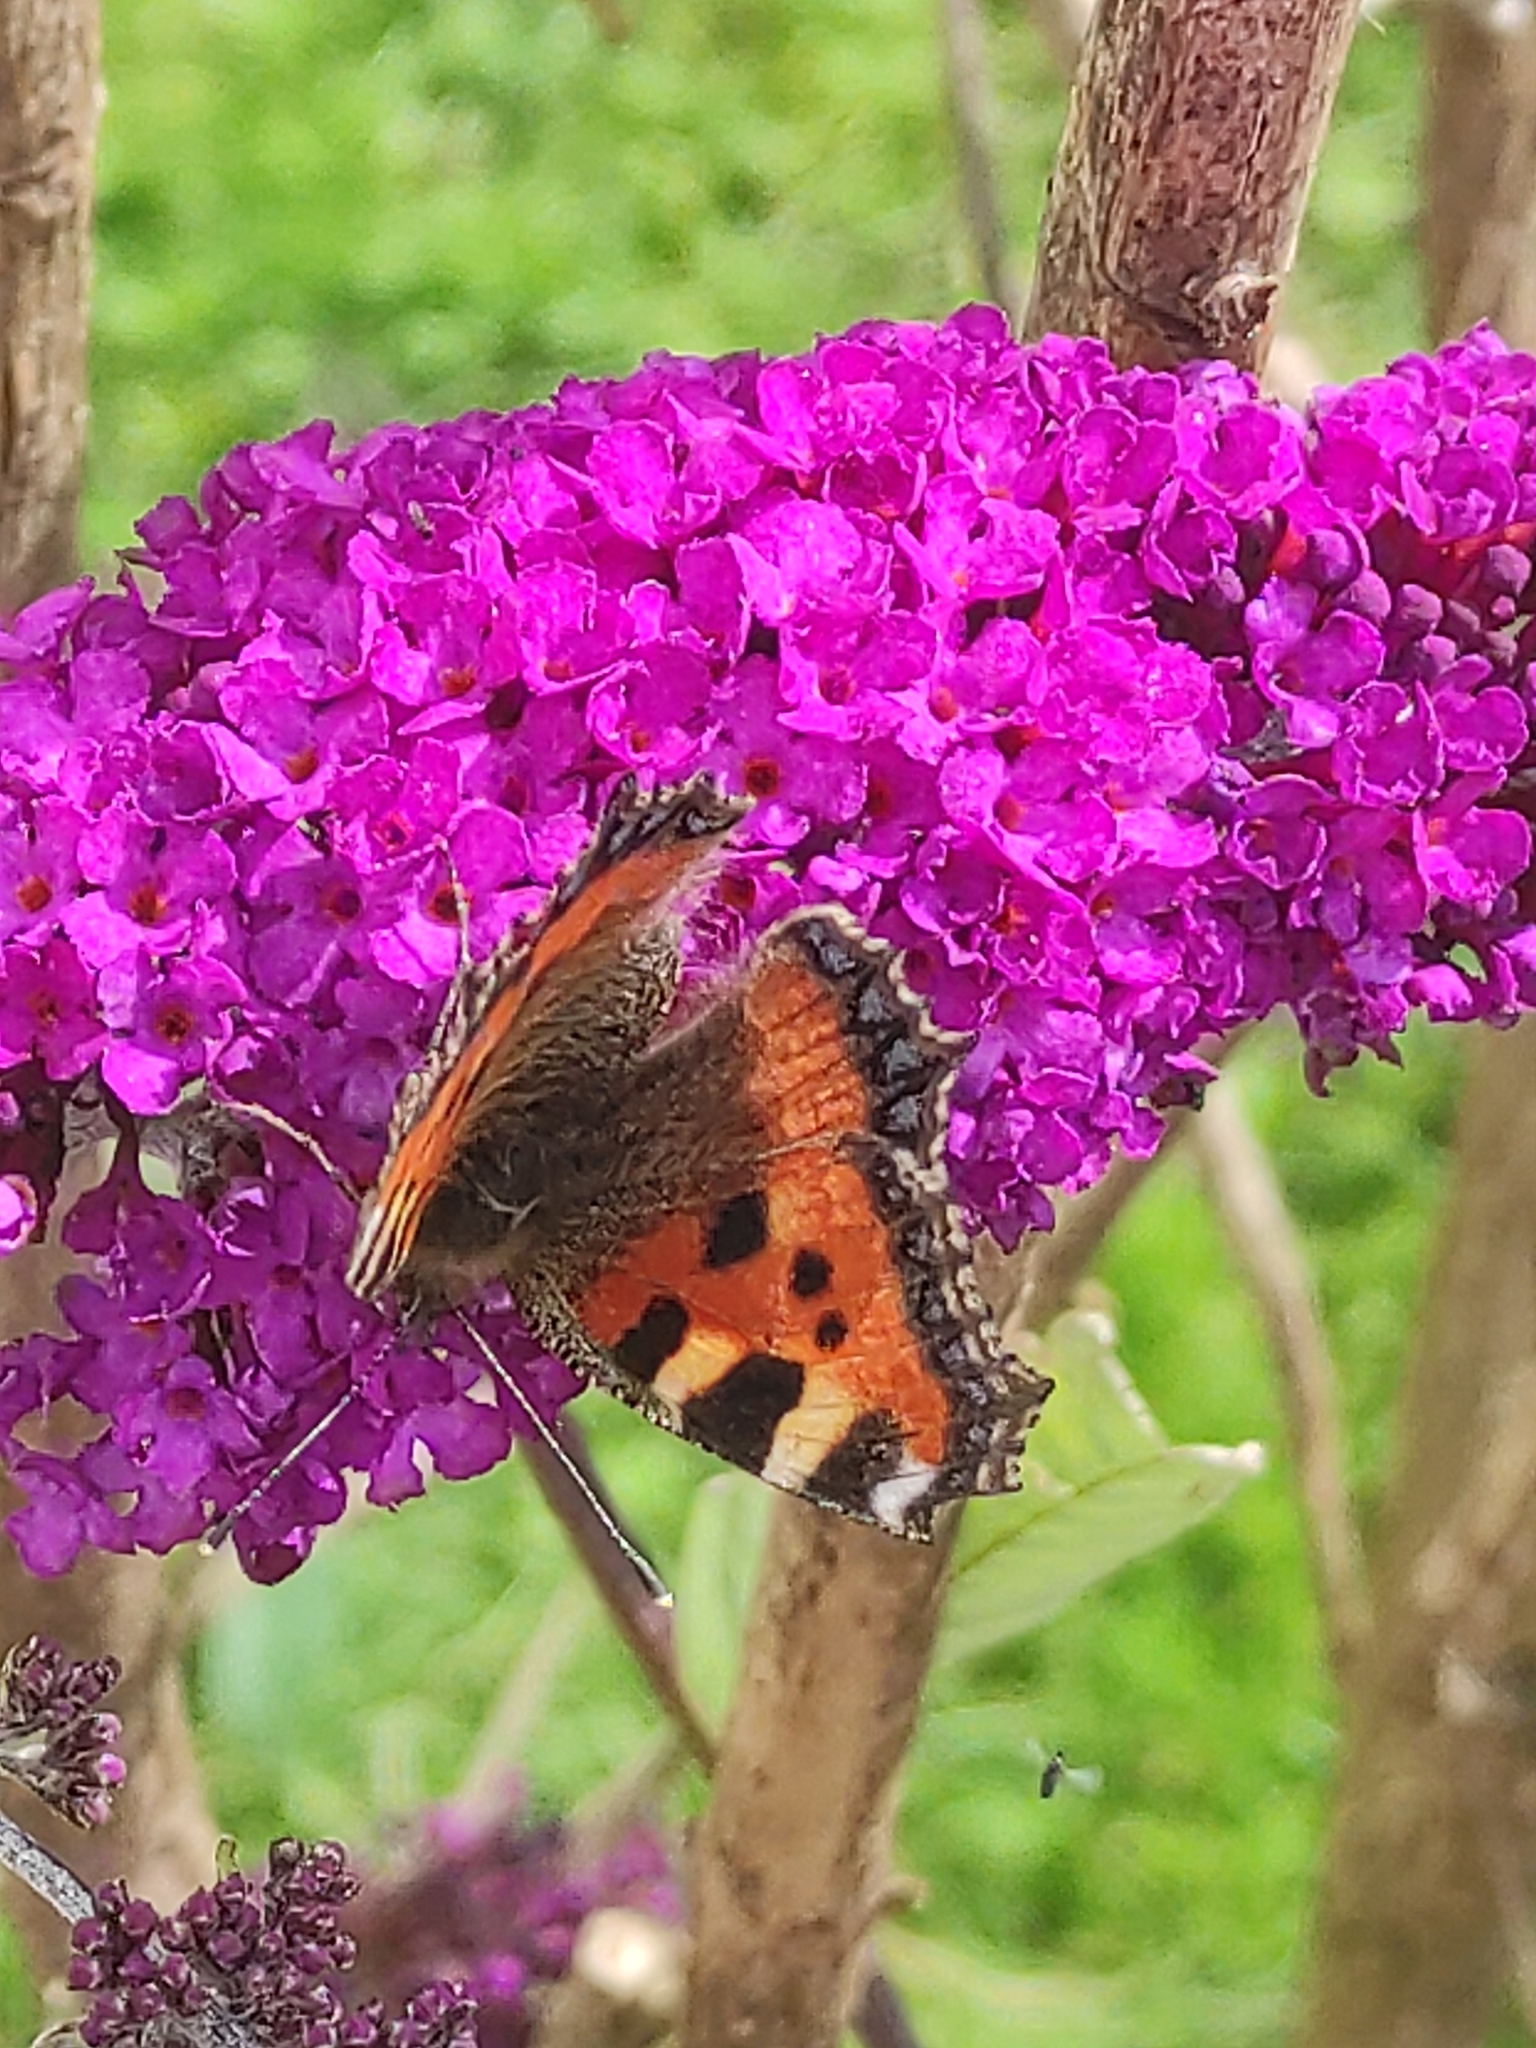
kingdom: Animalia
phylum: Arthropoda
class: Insecta
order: Lepidoptera
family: Nymphalidae
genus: Aglais
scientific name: Aglais urticae
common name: Small tortoiseshell
